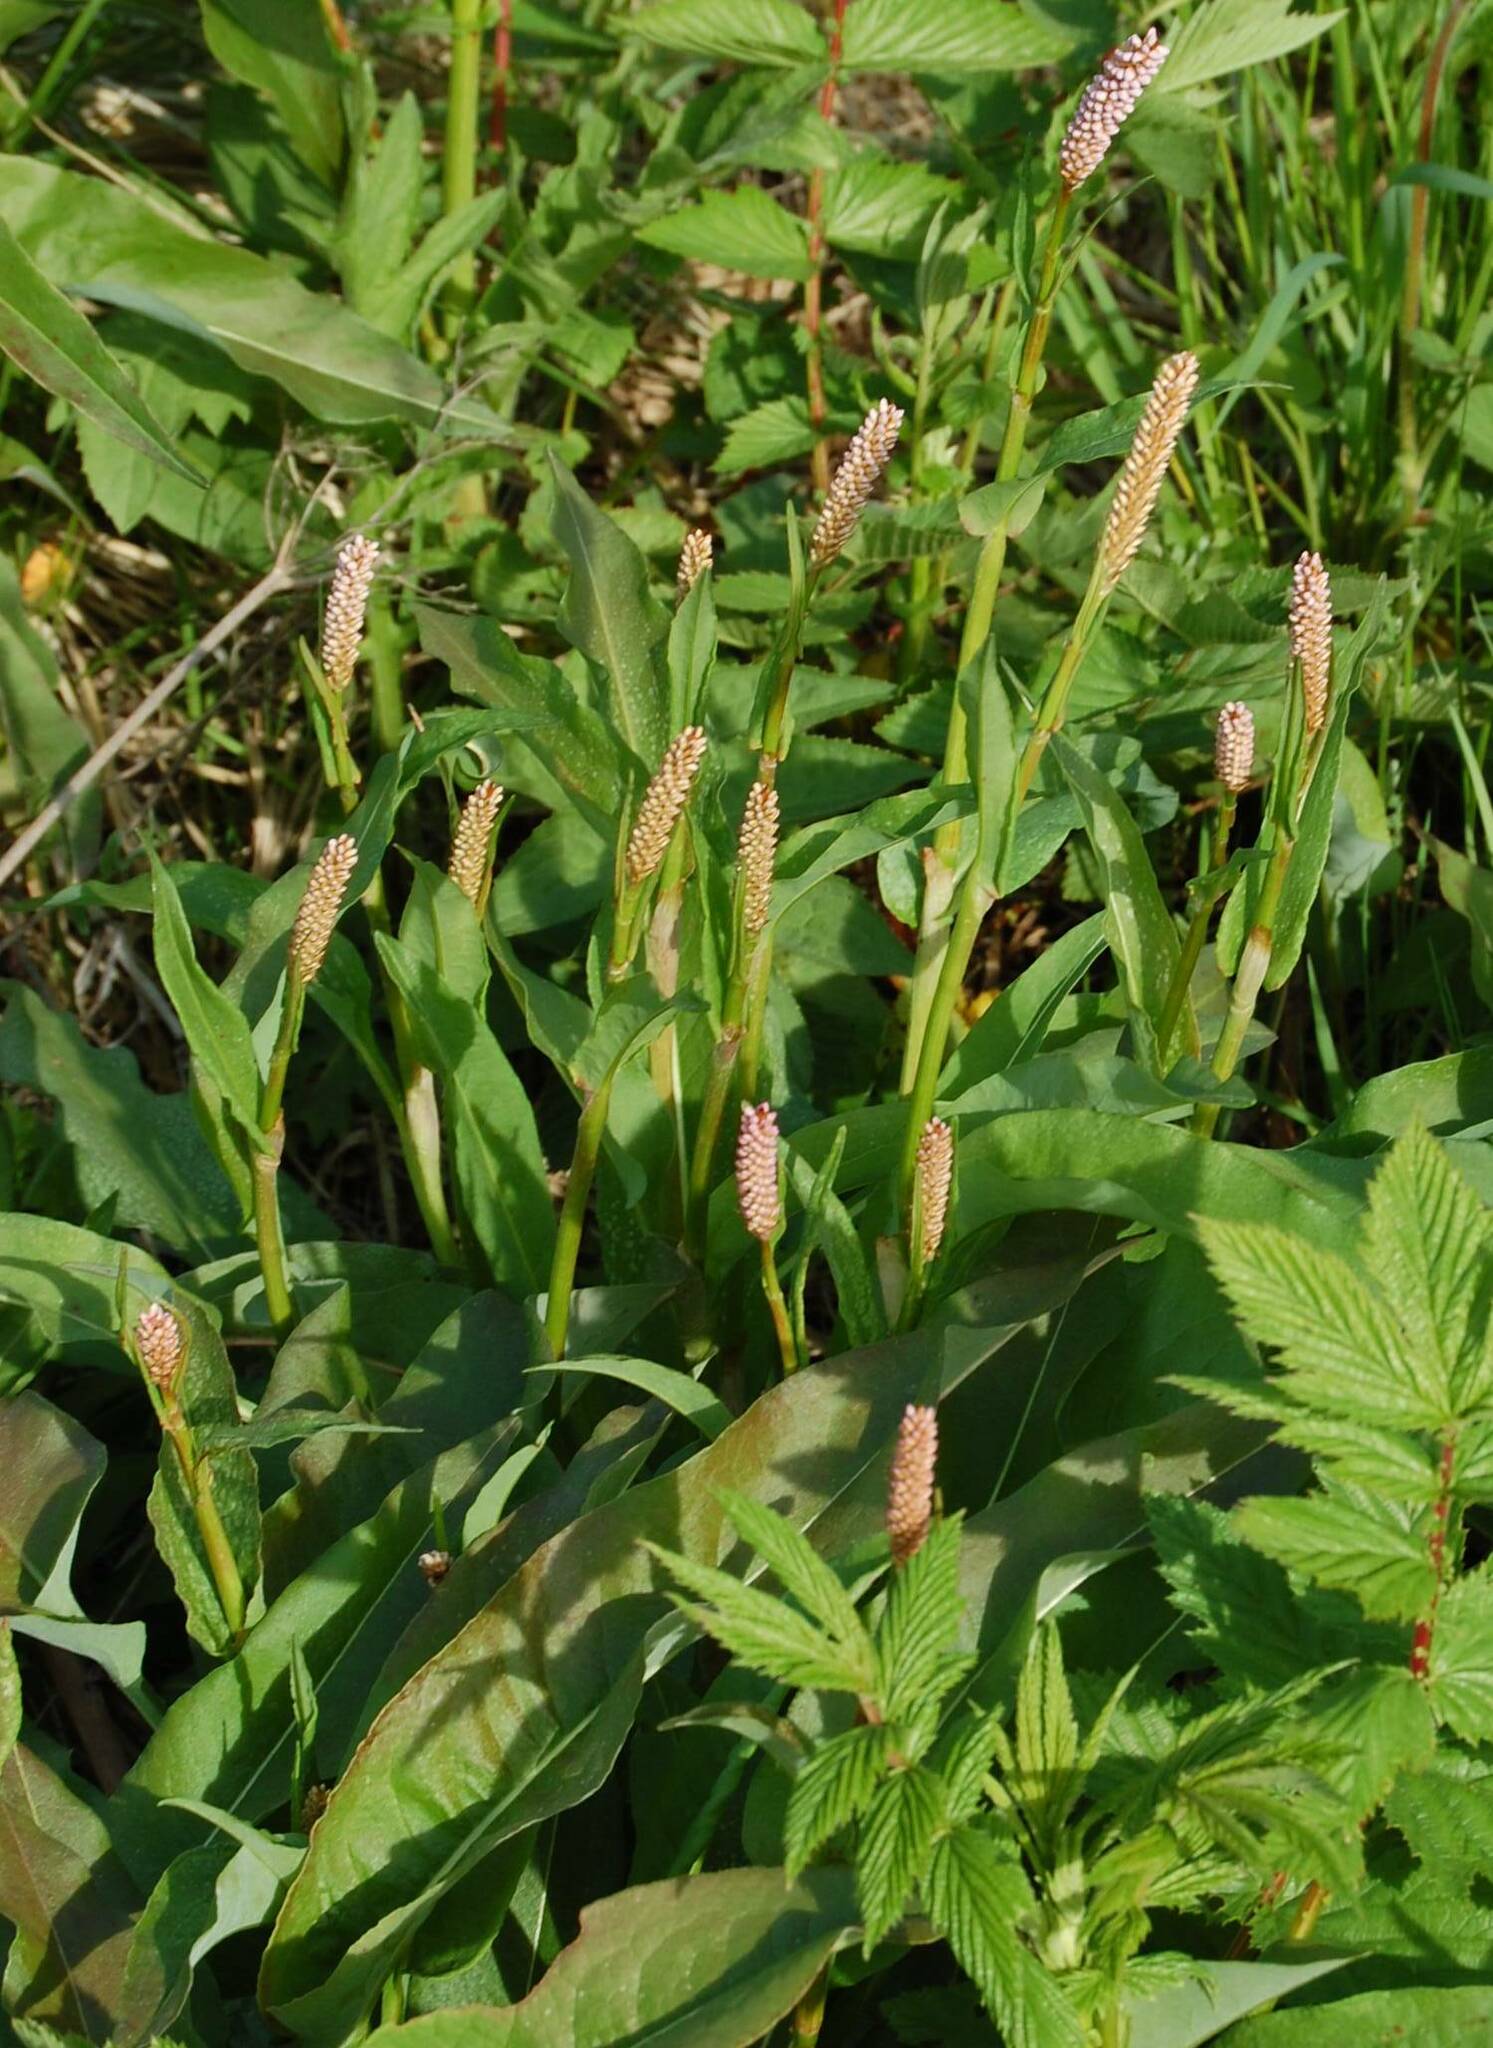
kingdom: Plantae
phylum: Tracheophyta
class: Magnoliopsida
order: Caryophyllales
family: Polygonaceae
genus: Bistorta
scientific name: Bistorta officinalis
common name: Common bistort
